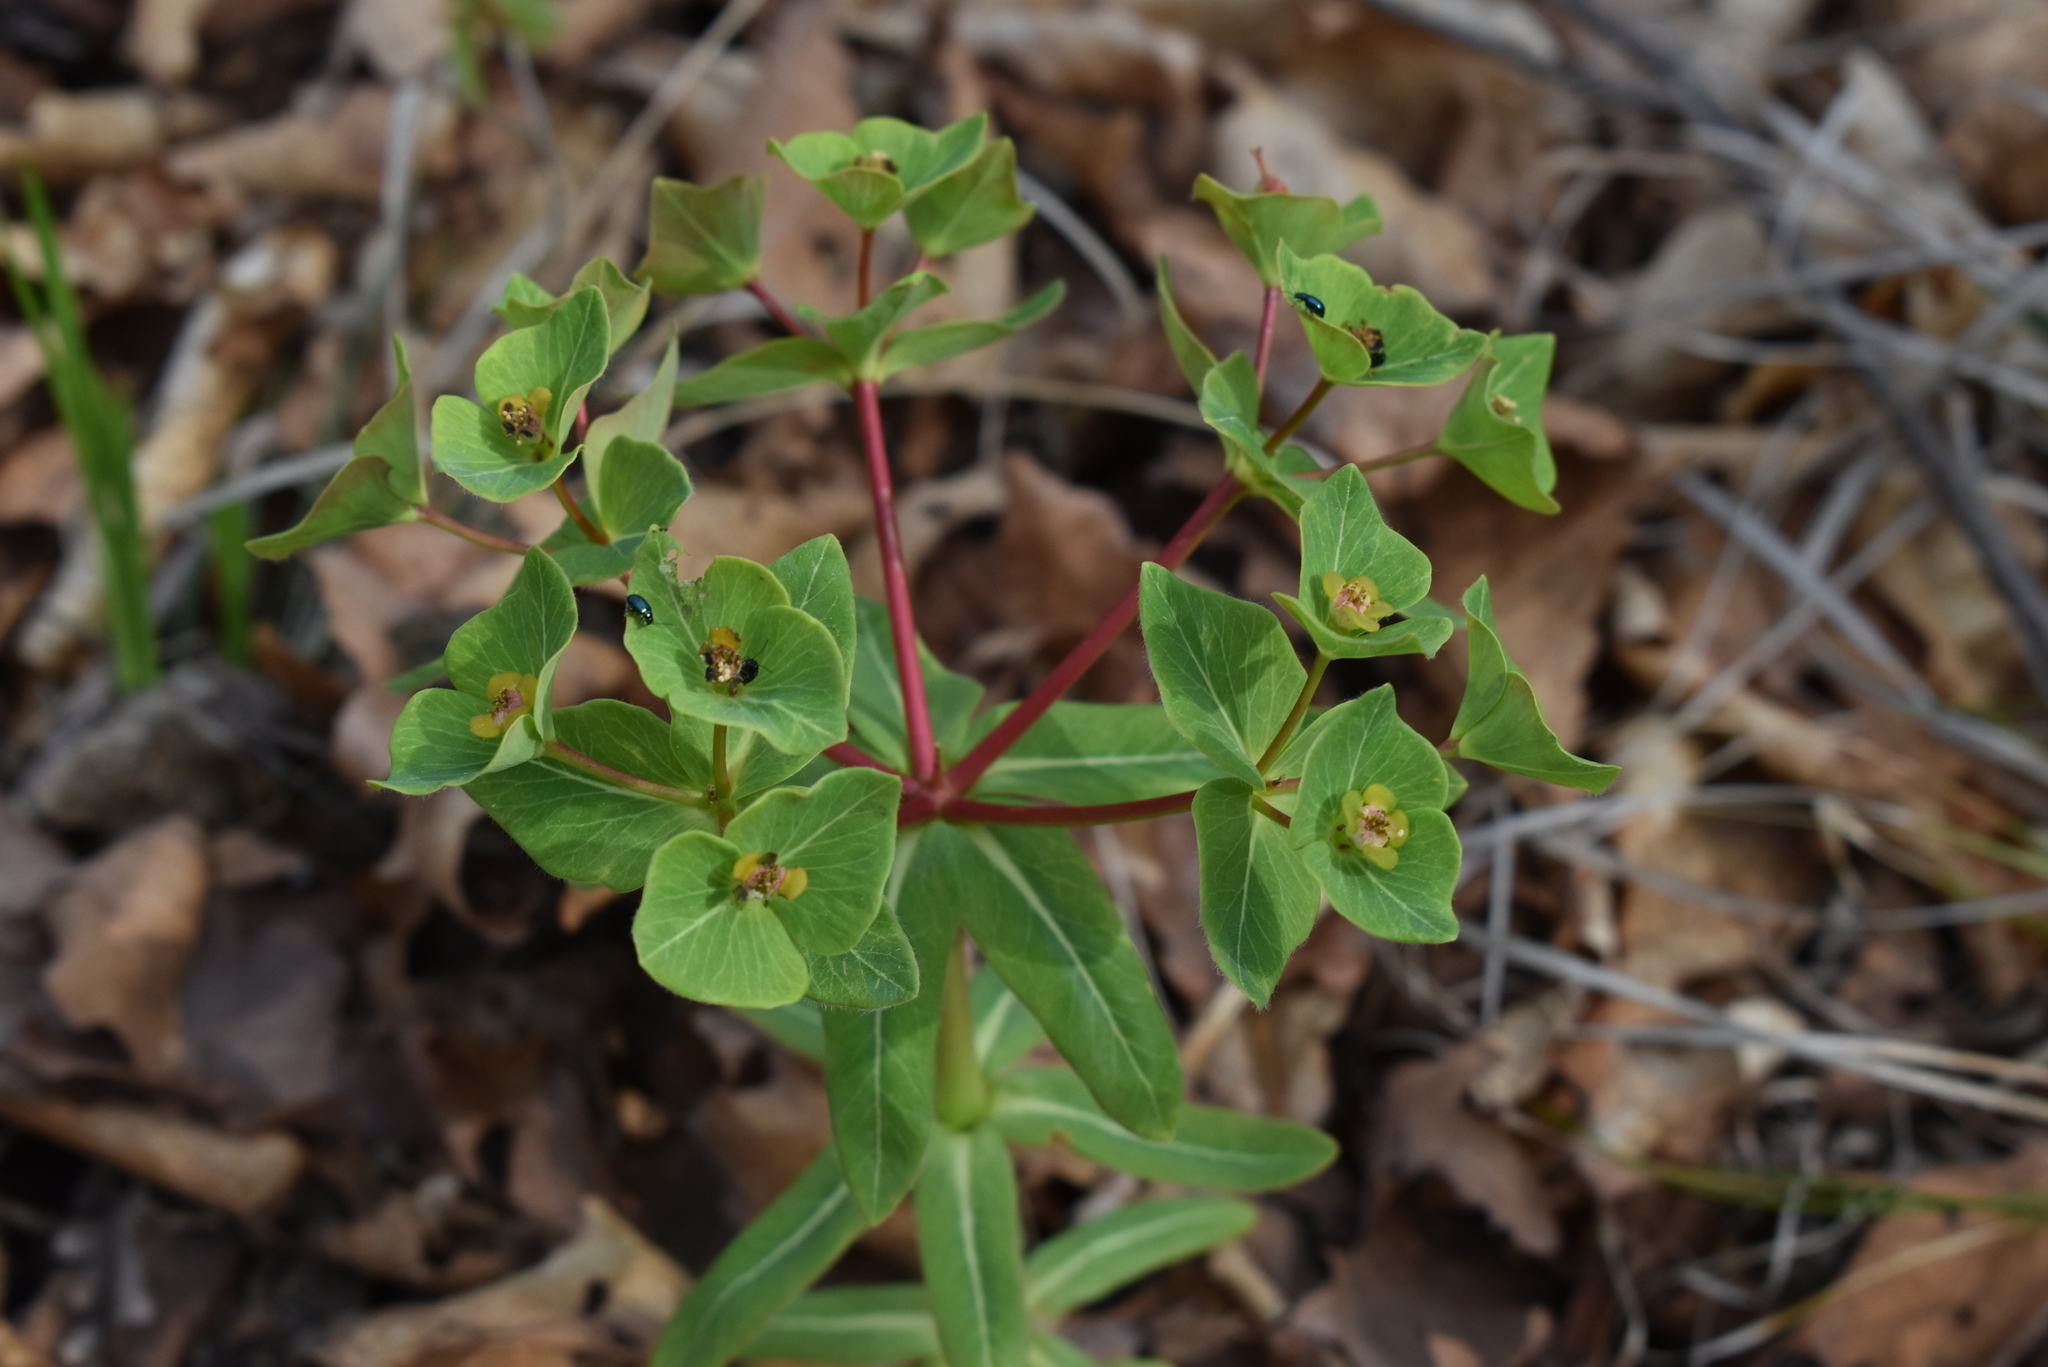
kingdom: Plantae
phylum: Tracheophyta
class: Magnoliopsida
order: Malpighiales
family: Euphorbiaceae
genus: Euphorbia
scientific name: Euphorbia hylonoma
